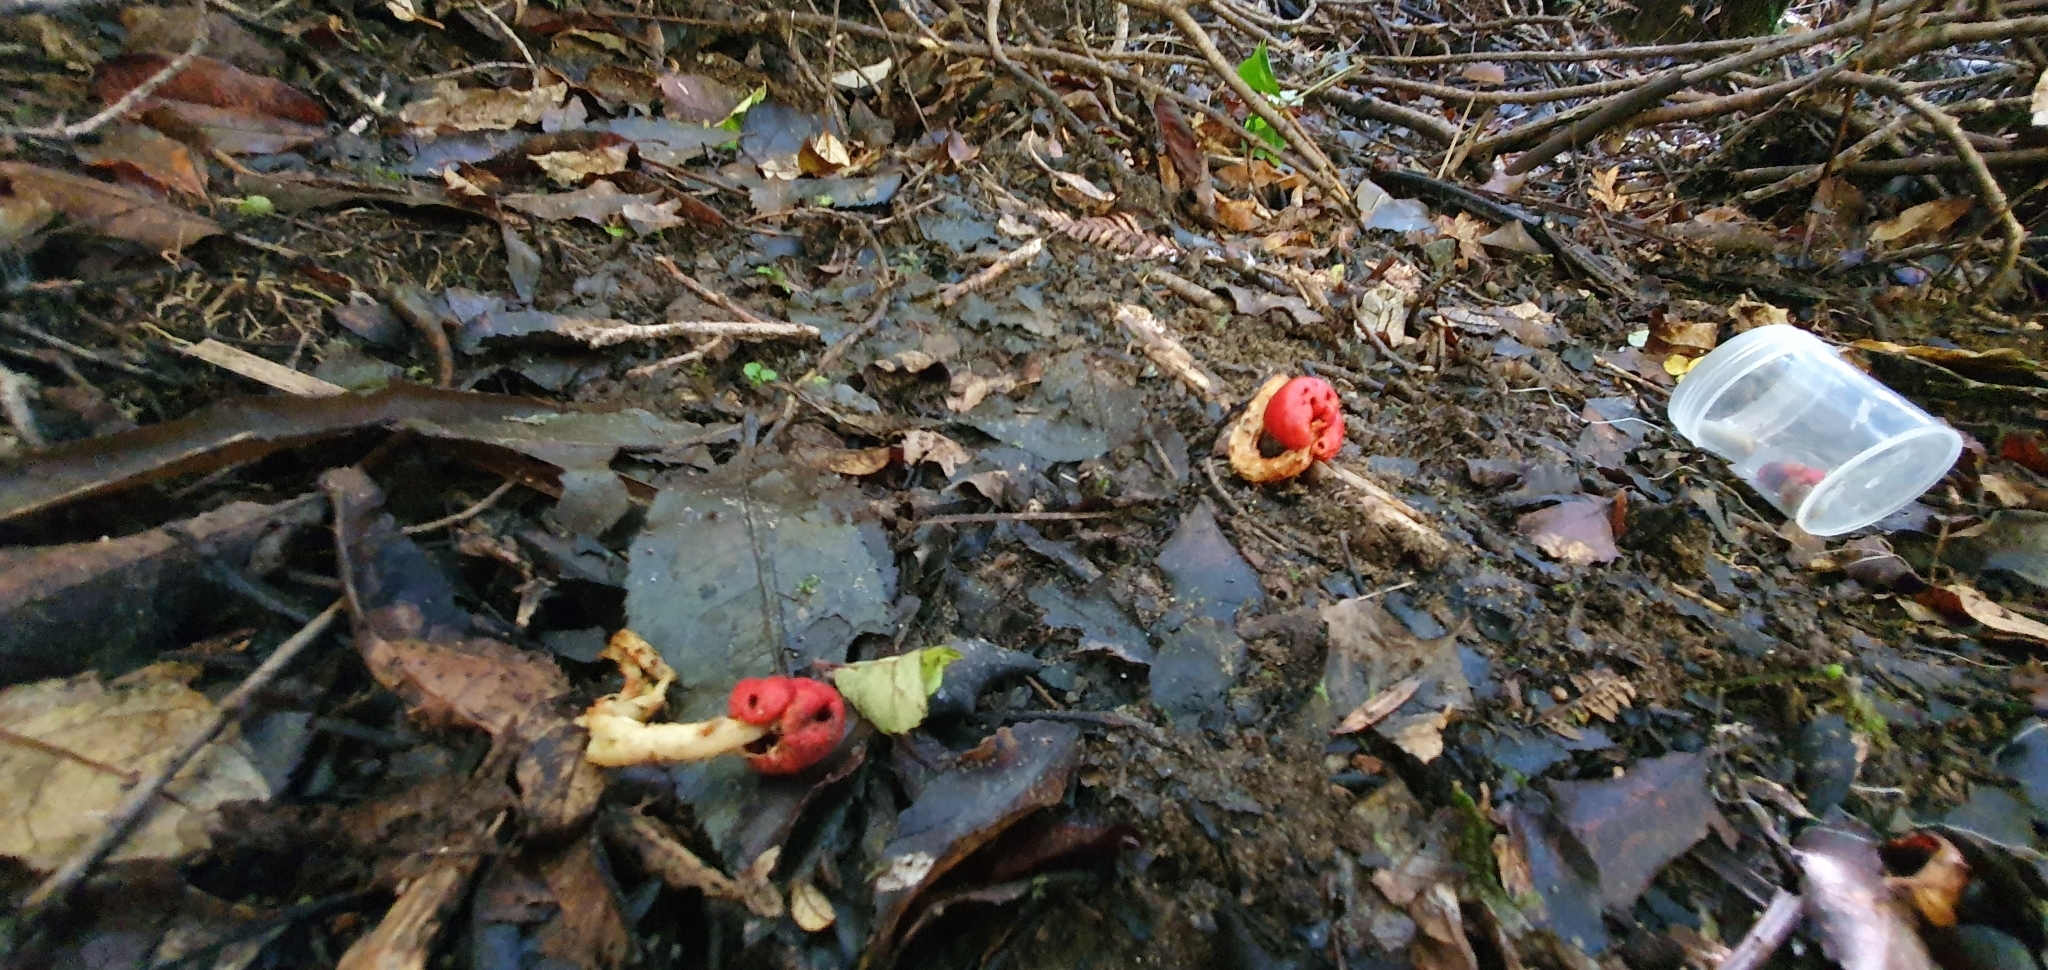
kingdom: Fungi
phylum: Basidiomycota
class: Agaricomycetes
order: Agaricales
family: Strophariaceae
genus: Leratiomyces
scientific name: Leratiomyces erythrocephalus
